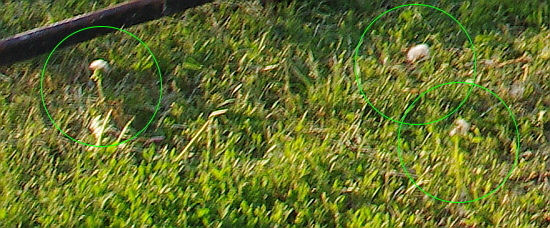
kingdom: Plantae
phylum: Tracheophyta
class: Magnoliopsida
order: Asterales
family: Asteraceae
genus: Taraxacum
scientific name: Taraxacum officinale
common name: Common dandelion
